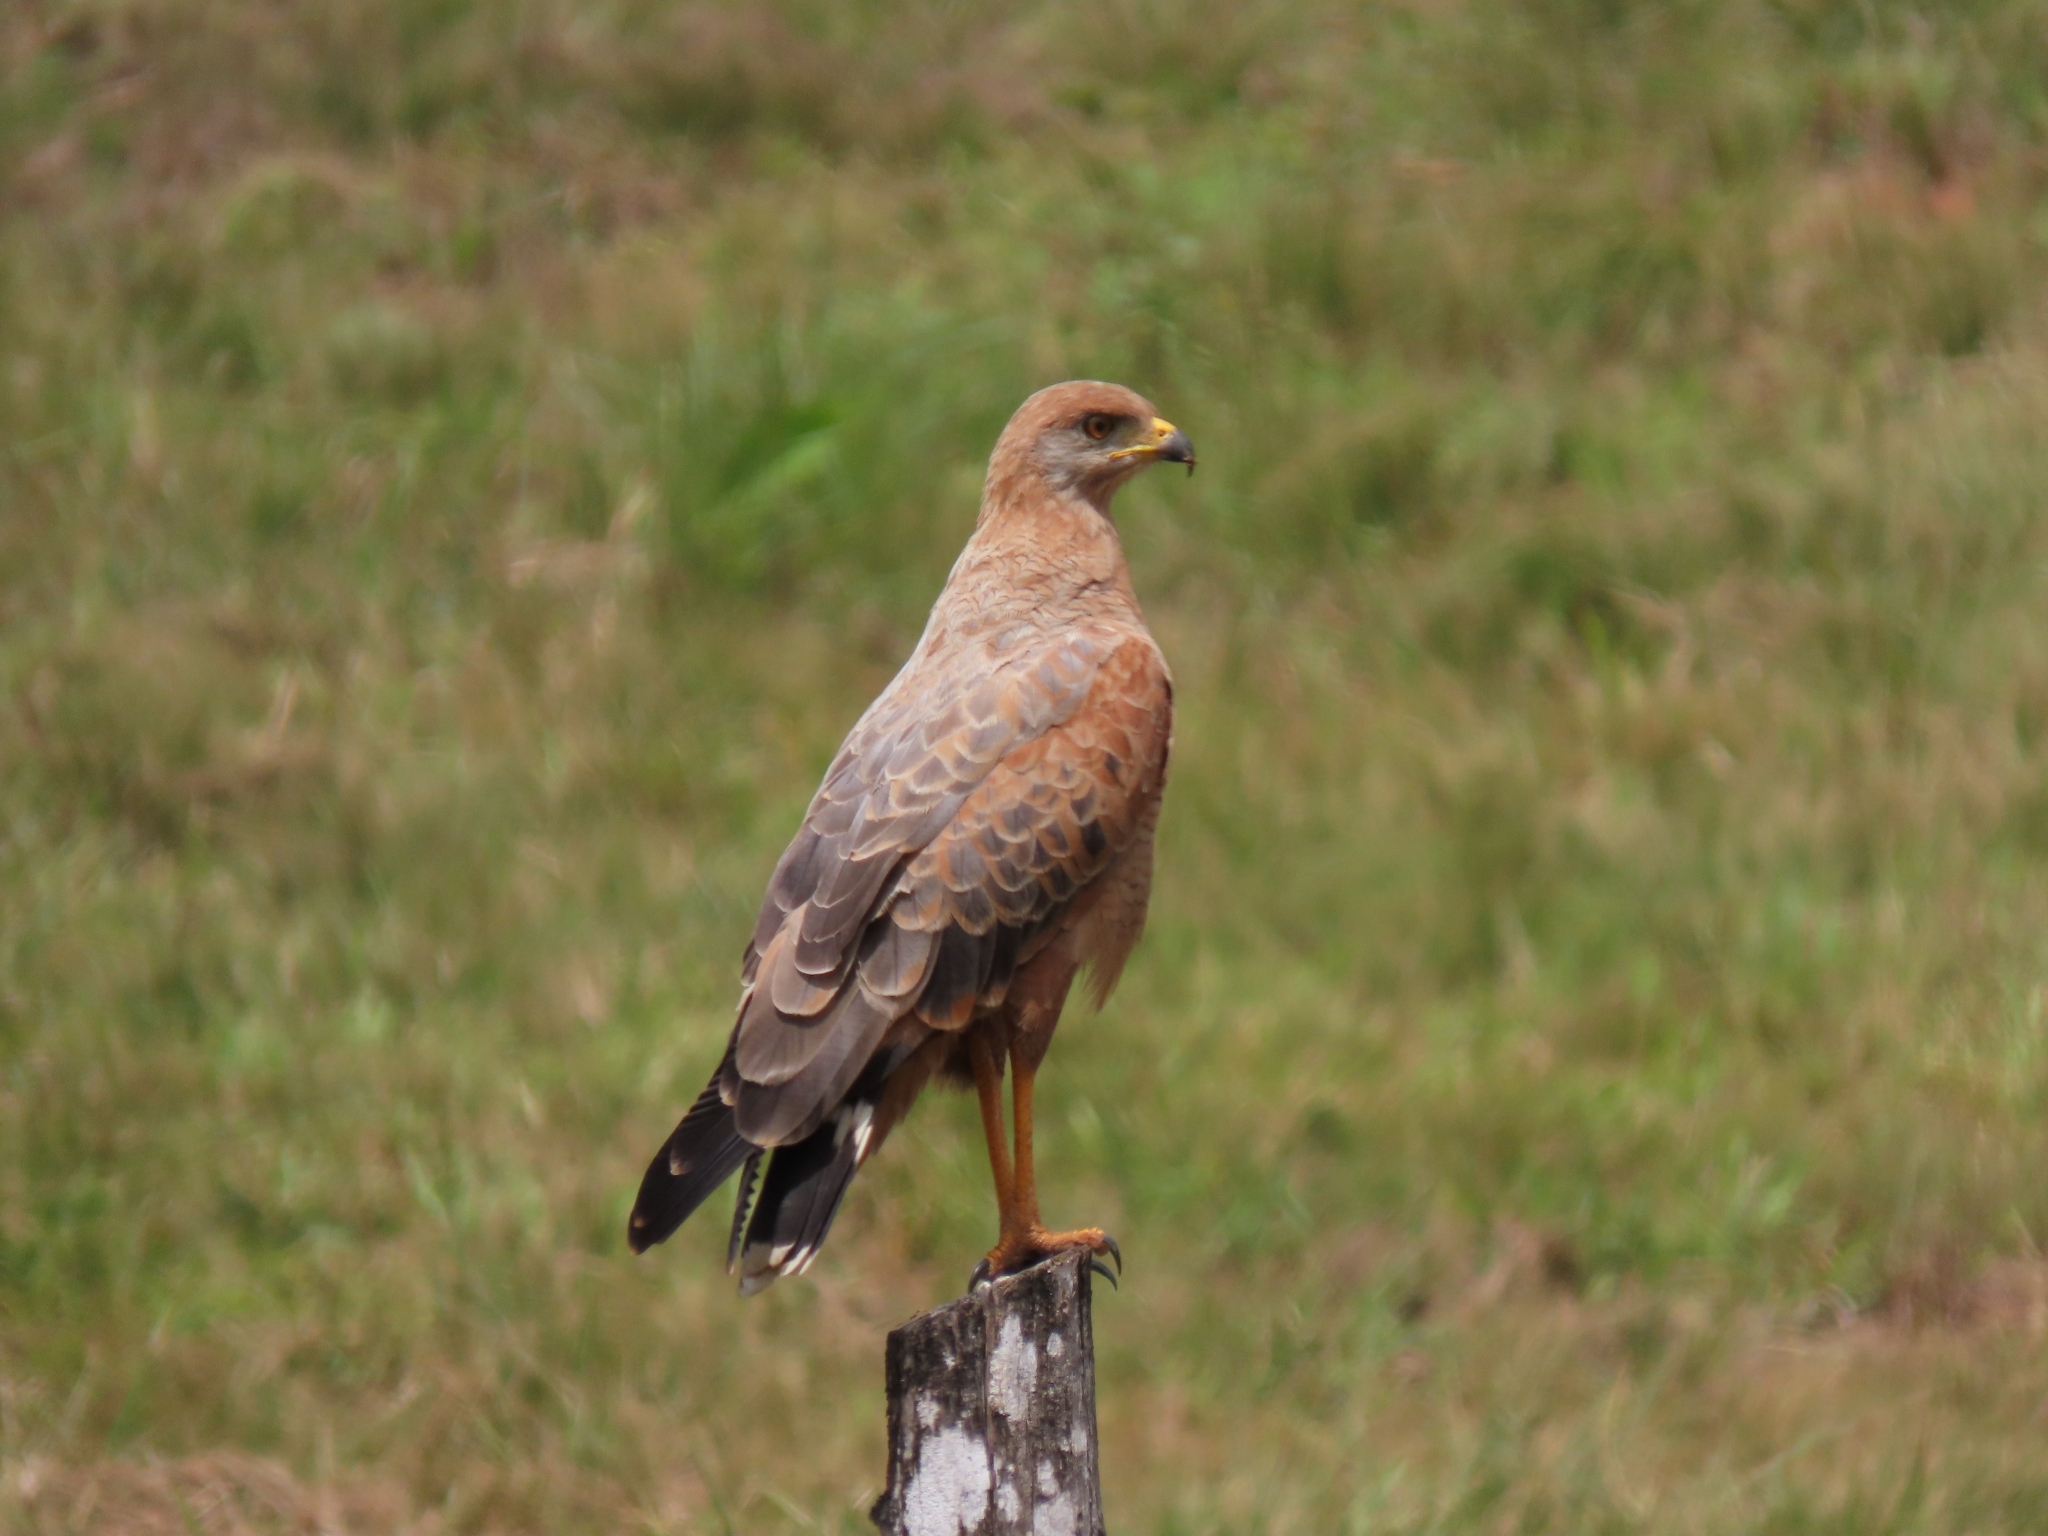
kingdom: Animalia
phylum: Chordata
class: Aves
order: Accipitriformes
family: Accipitridae
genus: Buteogallus
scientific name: Buteogallus meridionalis
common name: Savanna hawk
